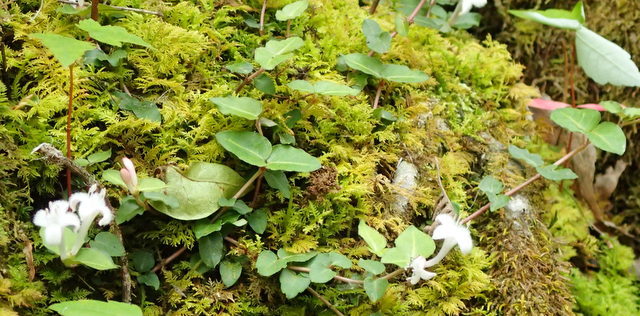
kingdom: Plantae
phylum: Tracheophyta
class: Magnoliopsida
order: Gentianales
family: Rubiaceae
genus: Mitchella
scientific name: Mitchella repens
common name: Partridge-berry
